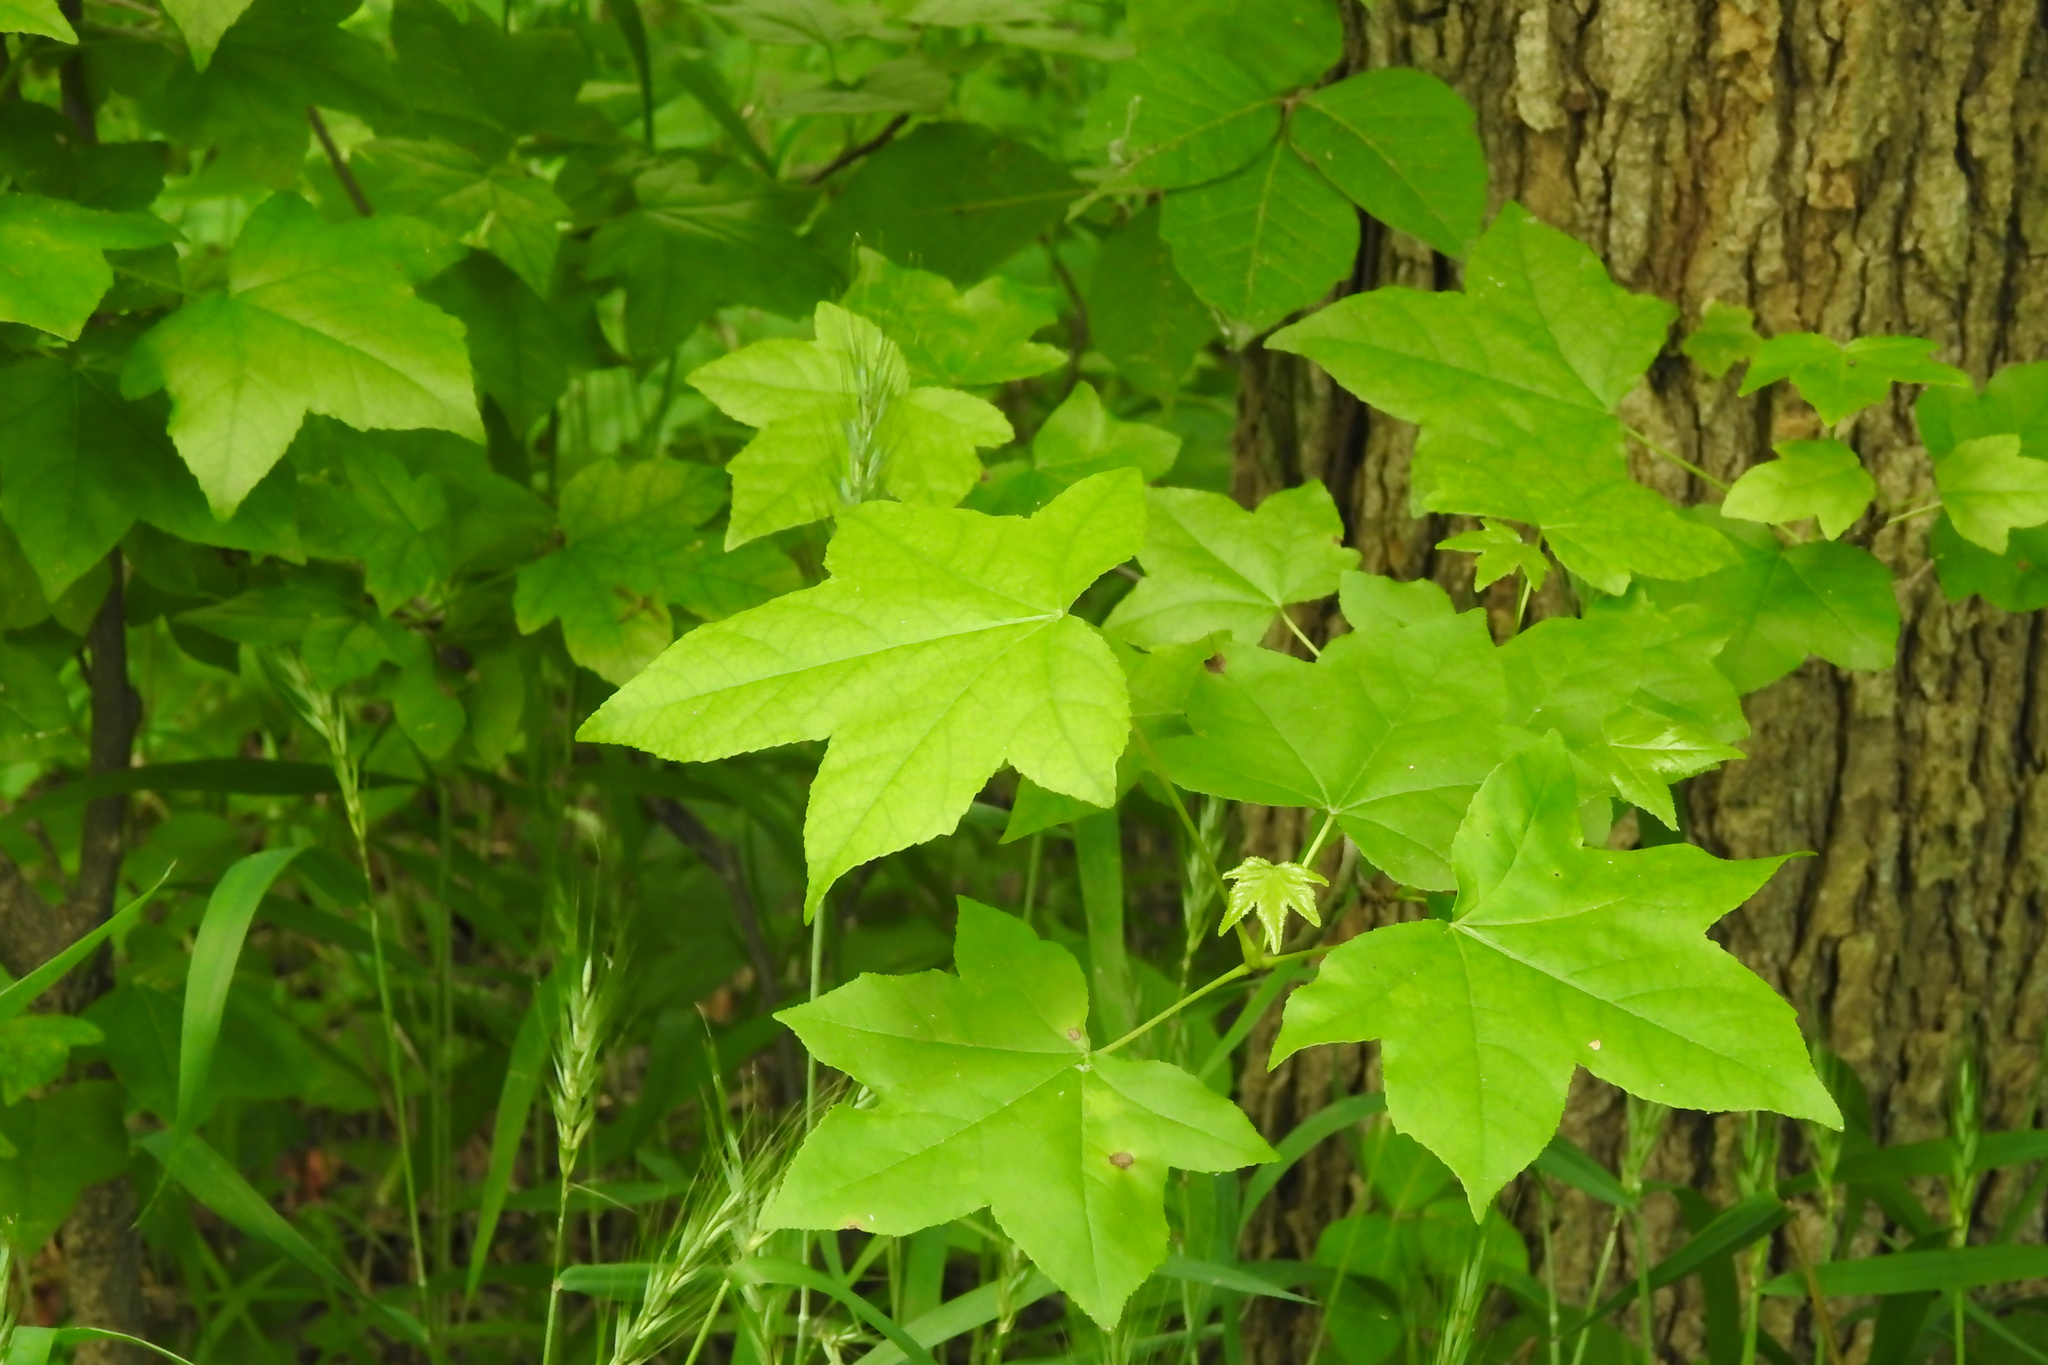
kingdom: Plantae
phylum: Tracheophyta
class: Magnoliopsida
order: Saxifragales
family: Altingiaceae
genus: Liquidambar
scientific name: Liquidambar styraciflua
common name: Sweet gum
